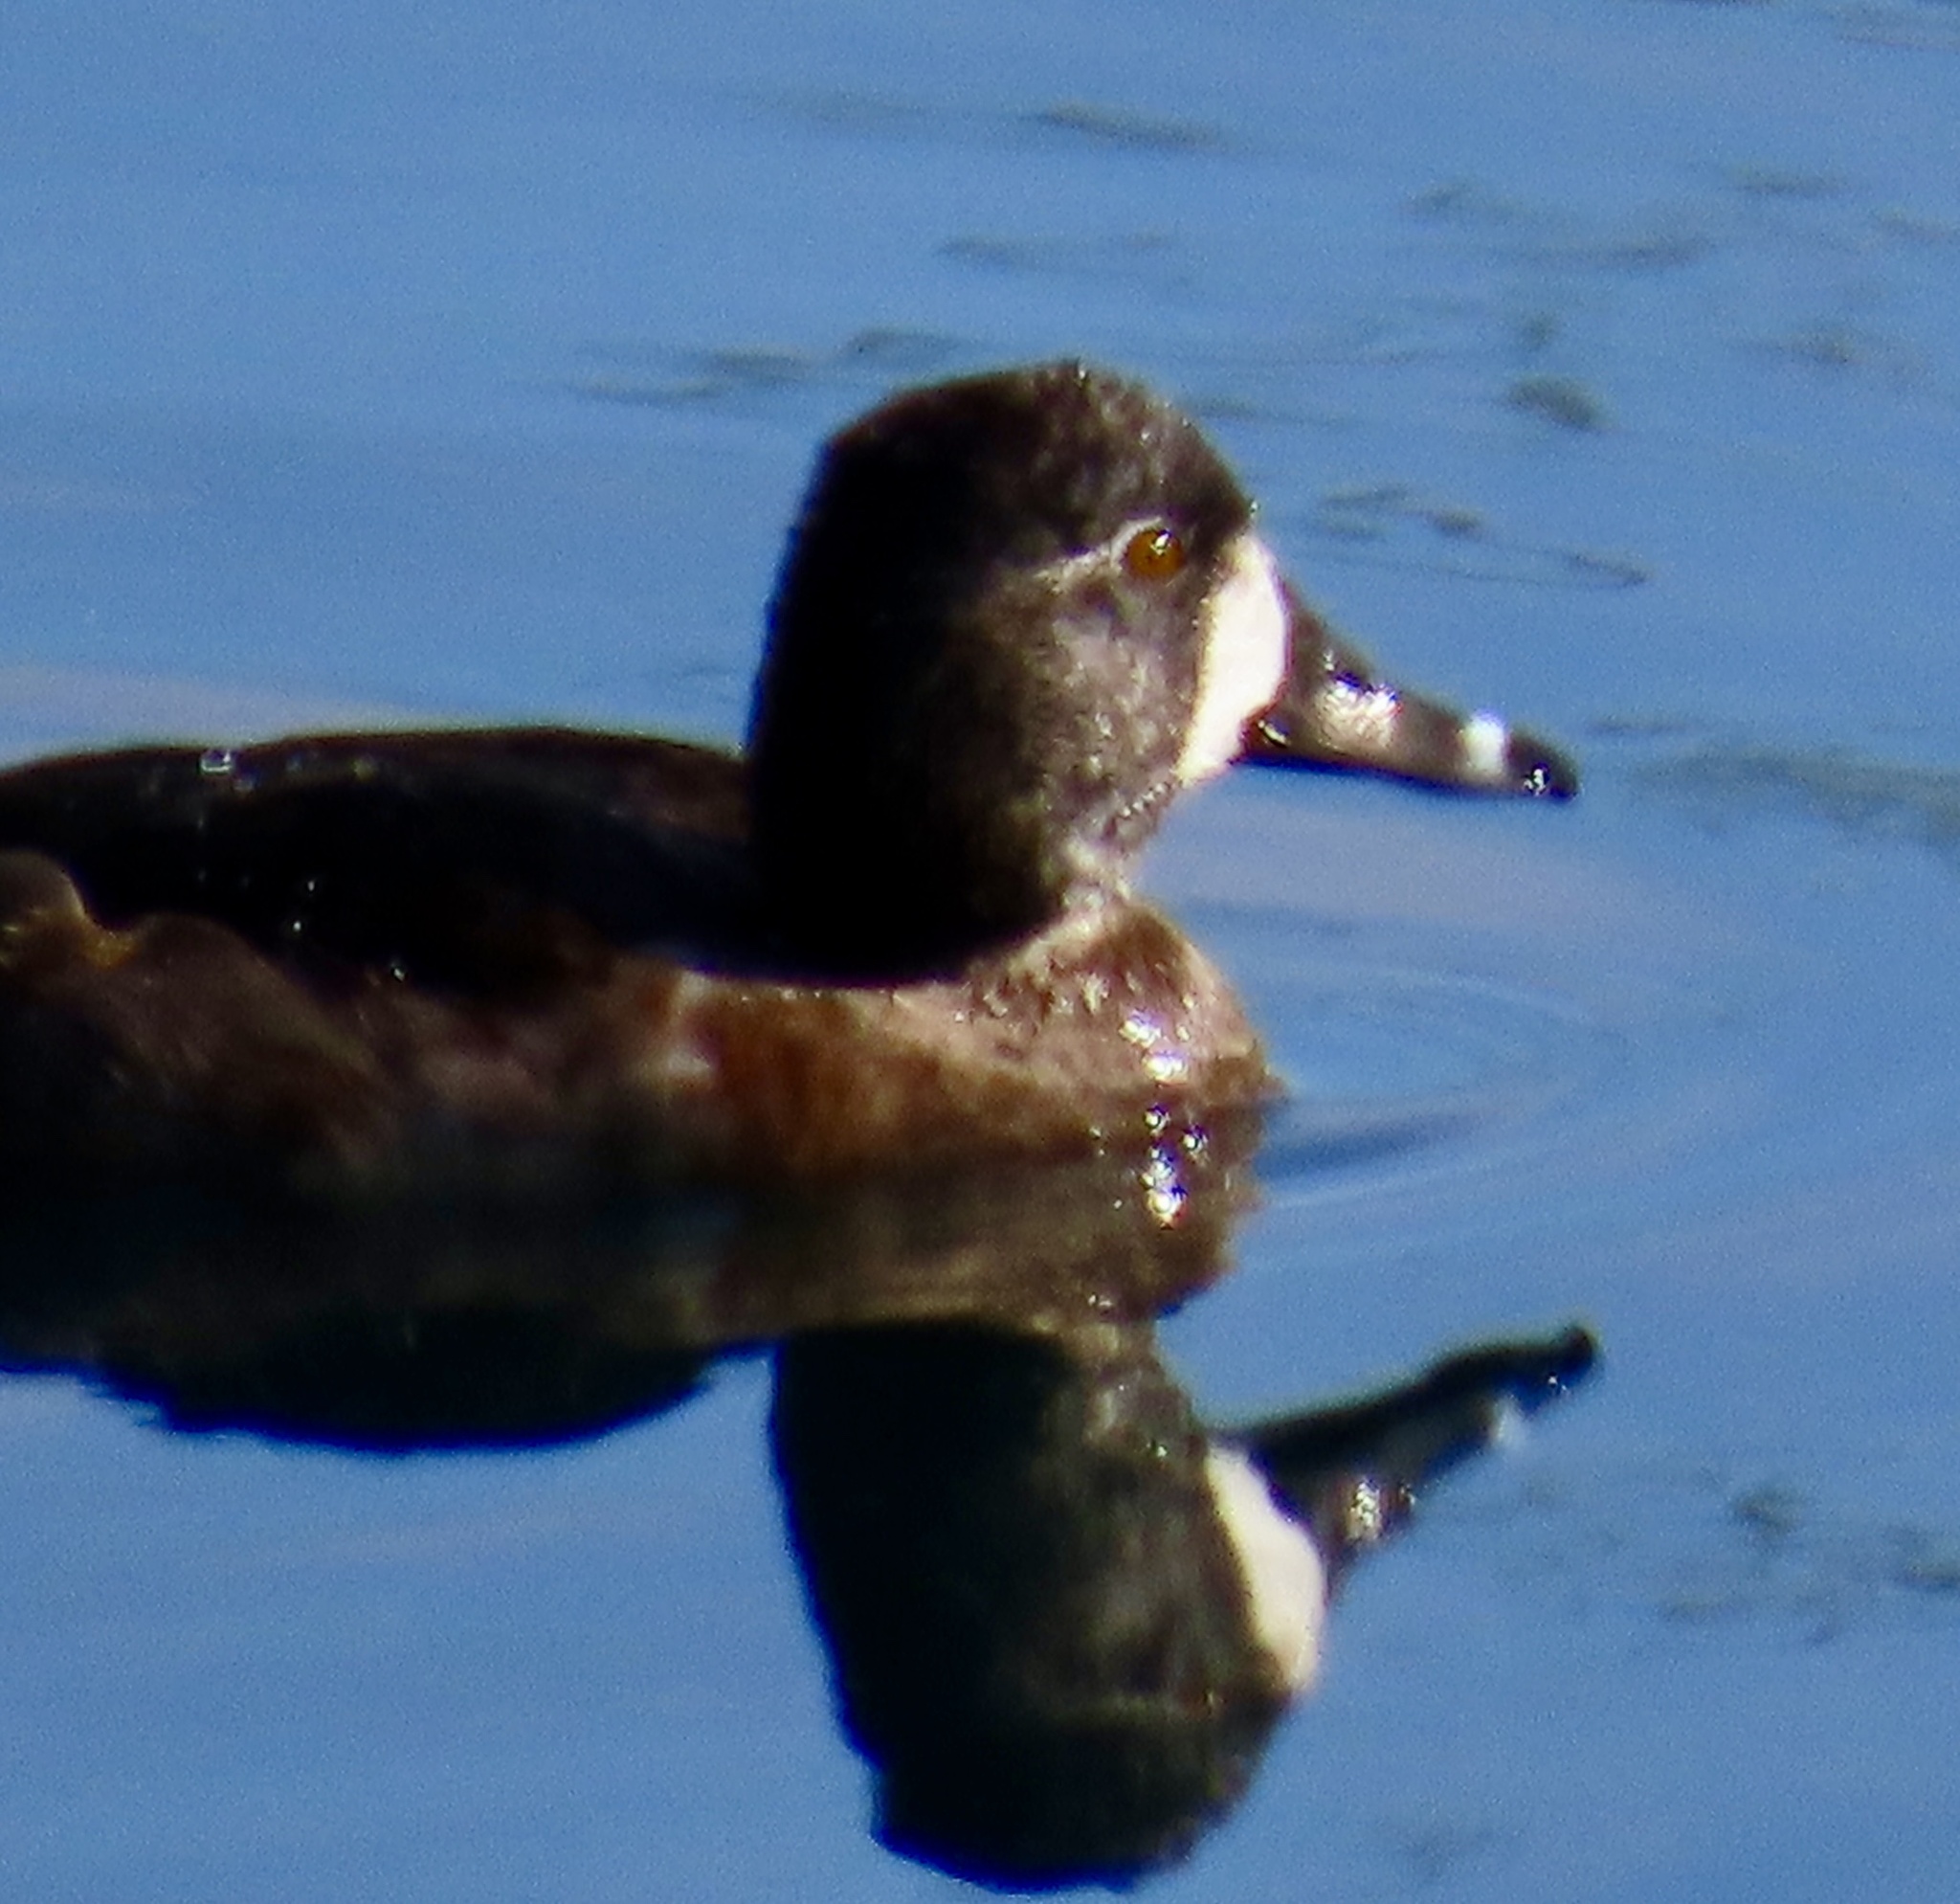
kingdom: Animalia
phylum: Chordata
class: Aves
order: Anseriformes
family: Anatidae
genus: Aythya
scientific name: Aythya collaris
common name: Ring-necked duck
